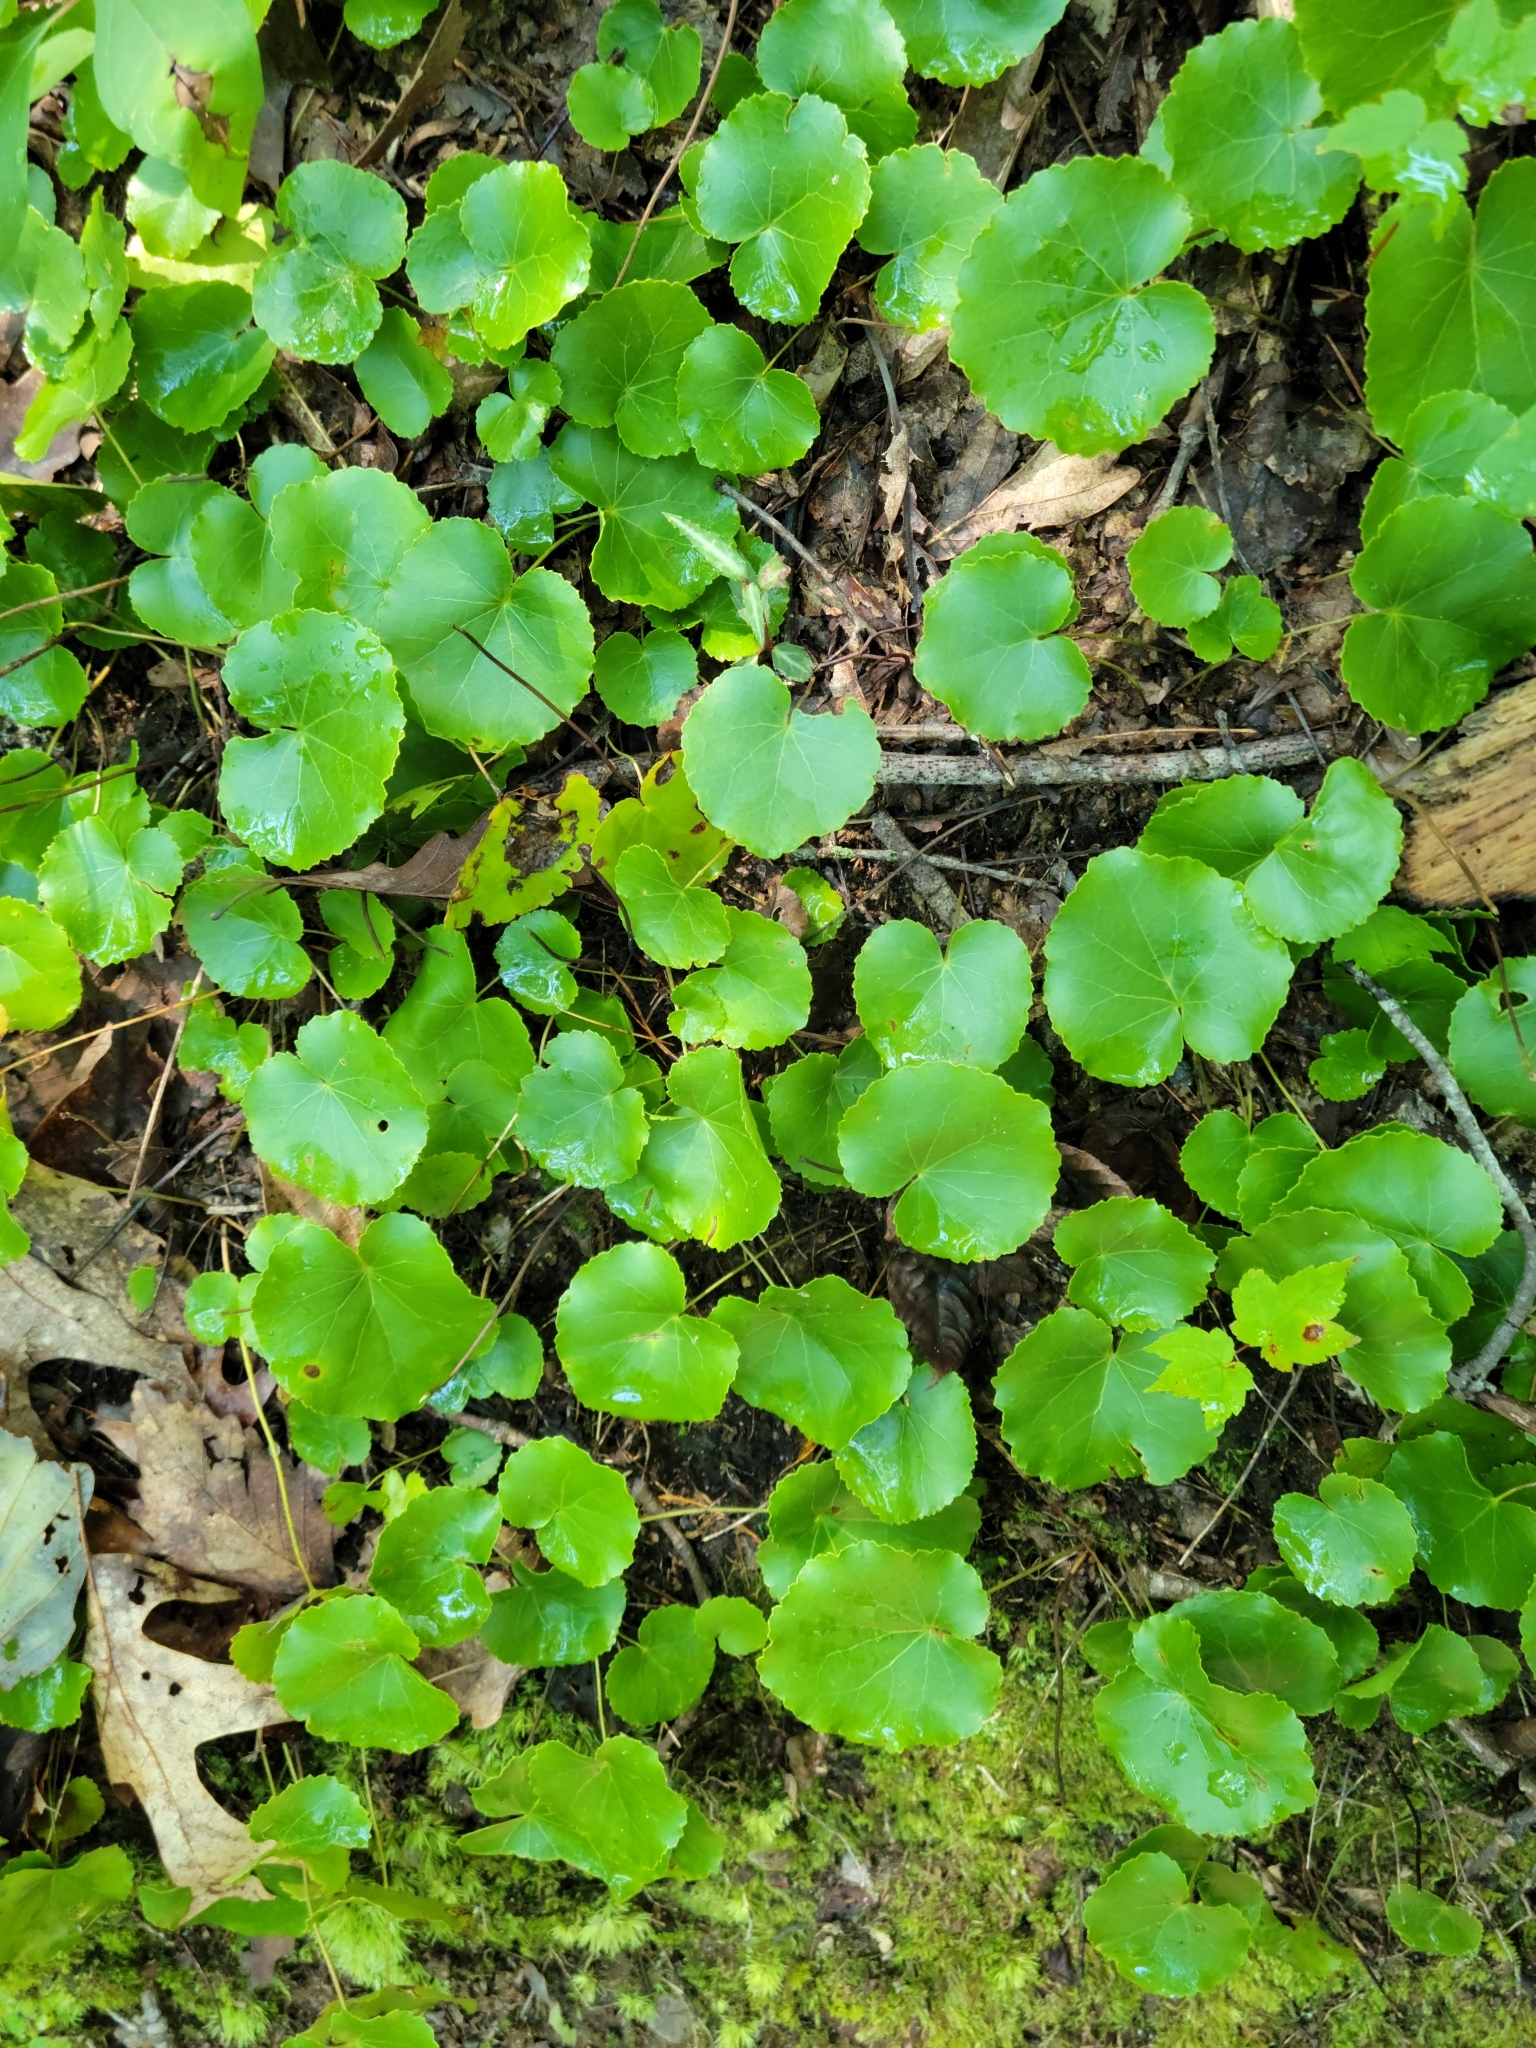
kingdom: Plantae
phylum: Tracheophyta
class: Magnoliopsida
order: Ericales
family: Diapensiaceae
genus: Galax
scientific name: Galax urceolata
